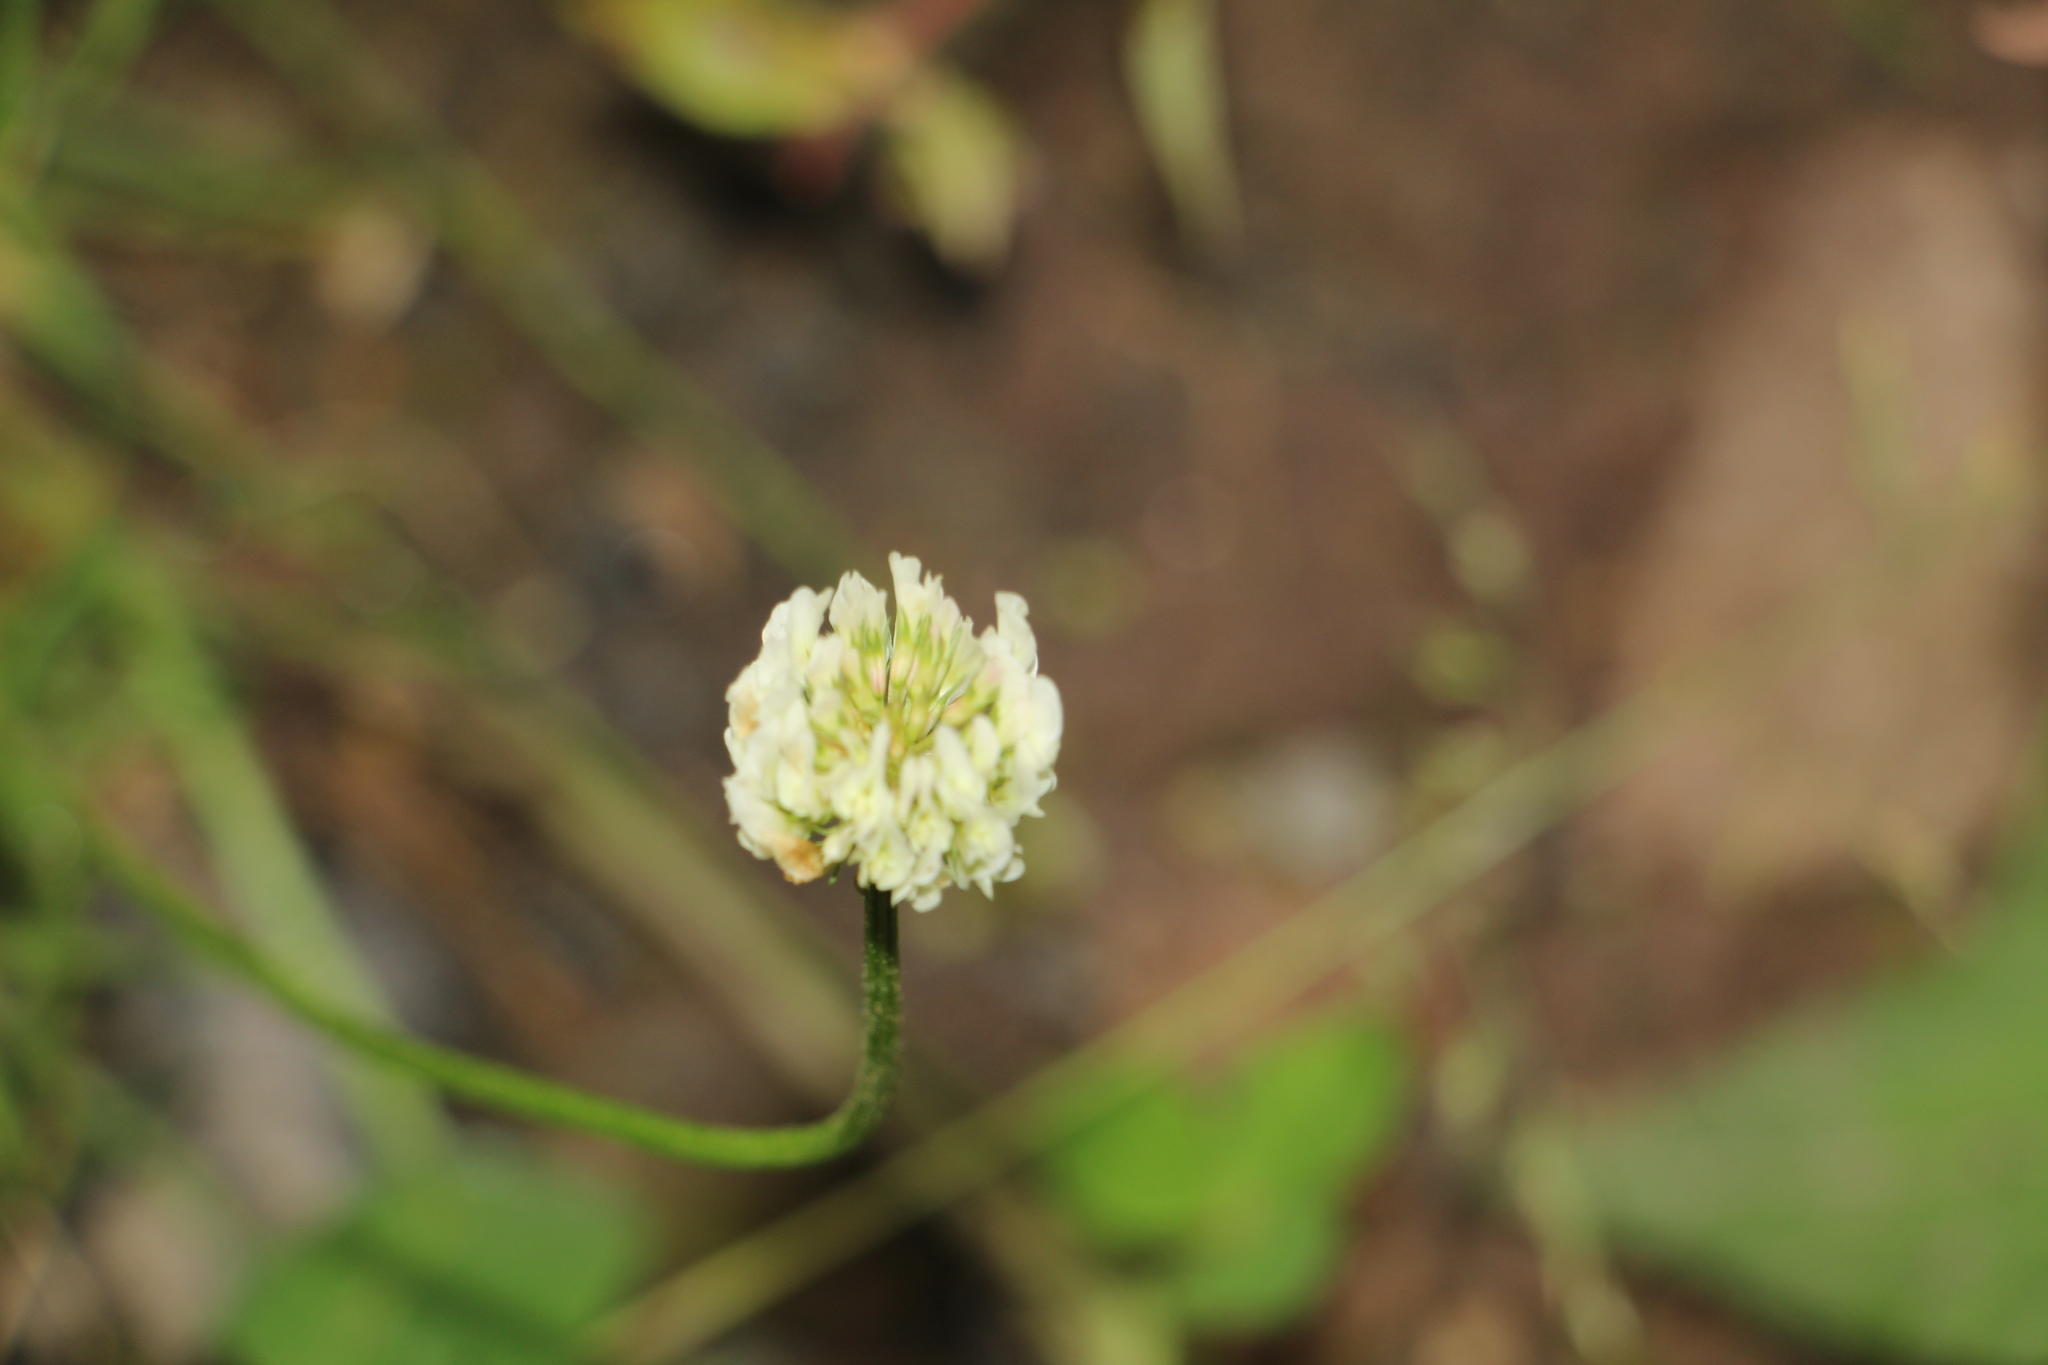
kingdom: Plantae
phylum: Tracheophyta
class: Magnoliopsida
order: Fabales
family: Fabaceae
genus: Trifolium
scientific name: Trifolium repens
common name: White clover
